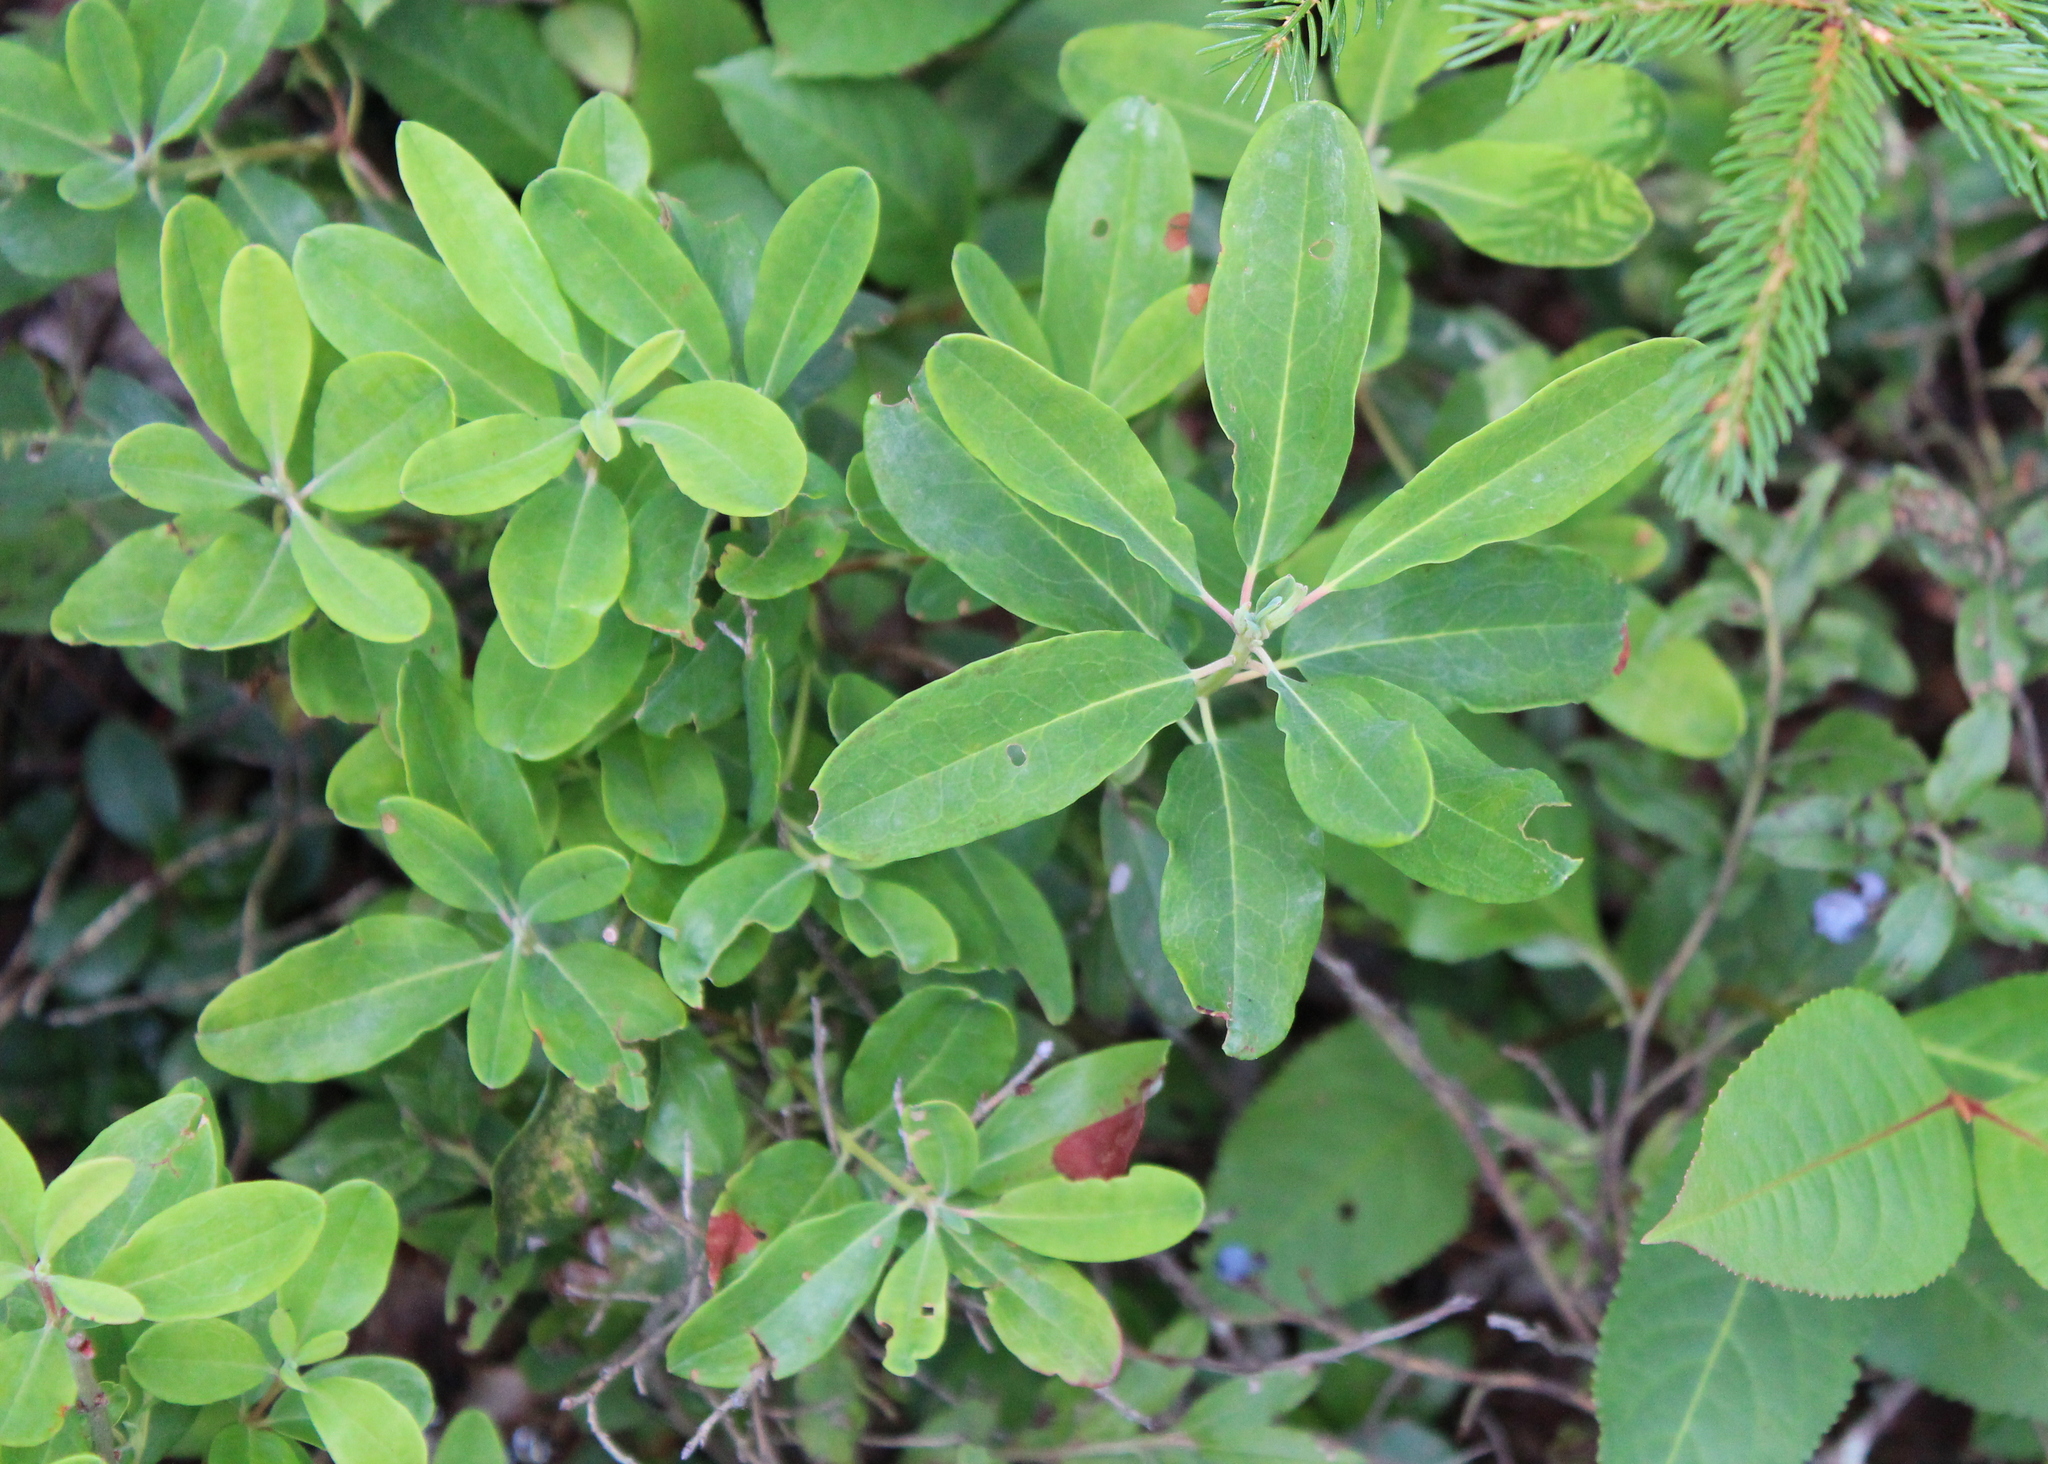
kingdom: Plantae
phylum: Tracheophyta
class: Magnoliopsida
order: Ericales
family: Ericaceae
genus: Kalmia
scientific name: Kalmia angustifolia
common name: Sheep-laurel
